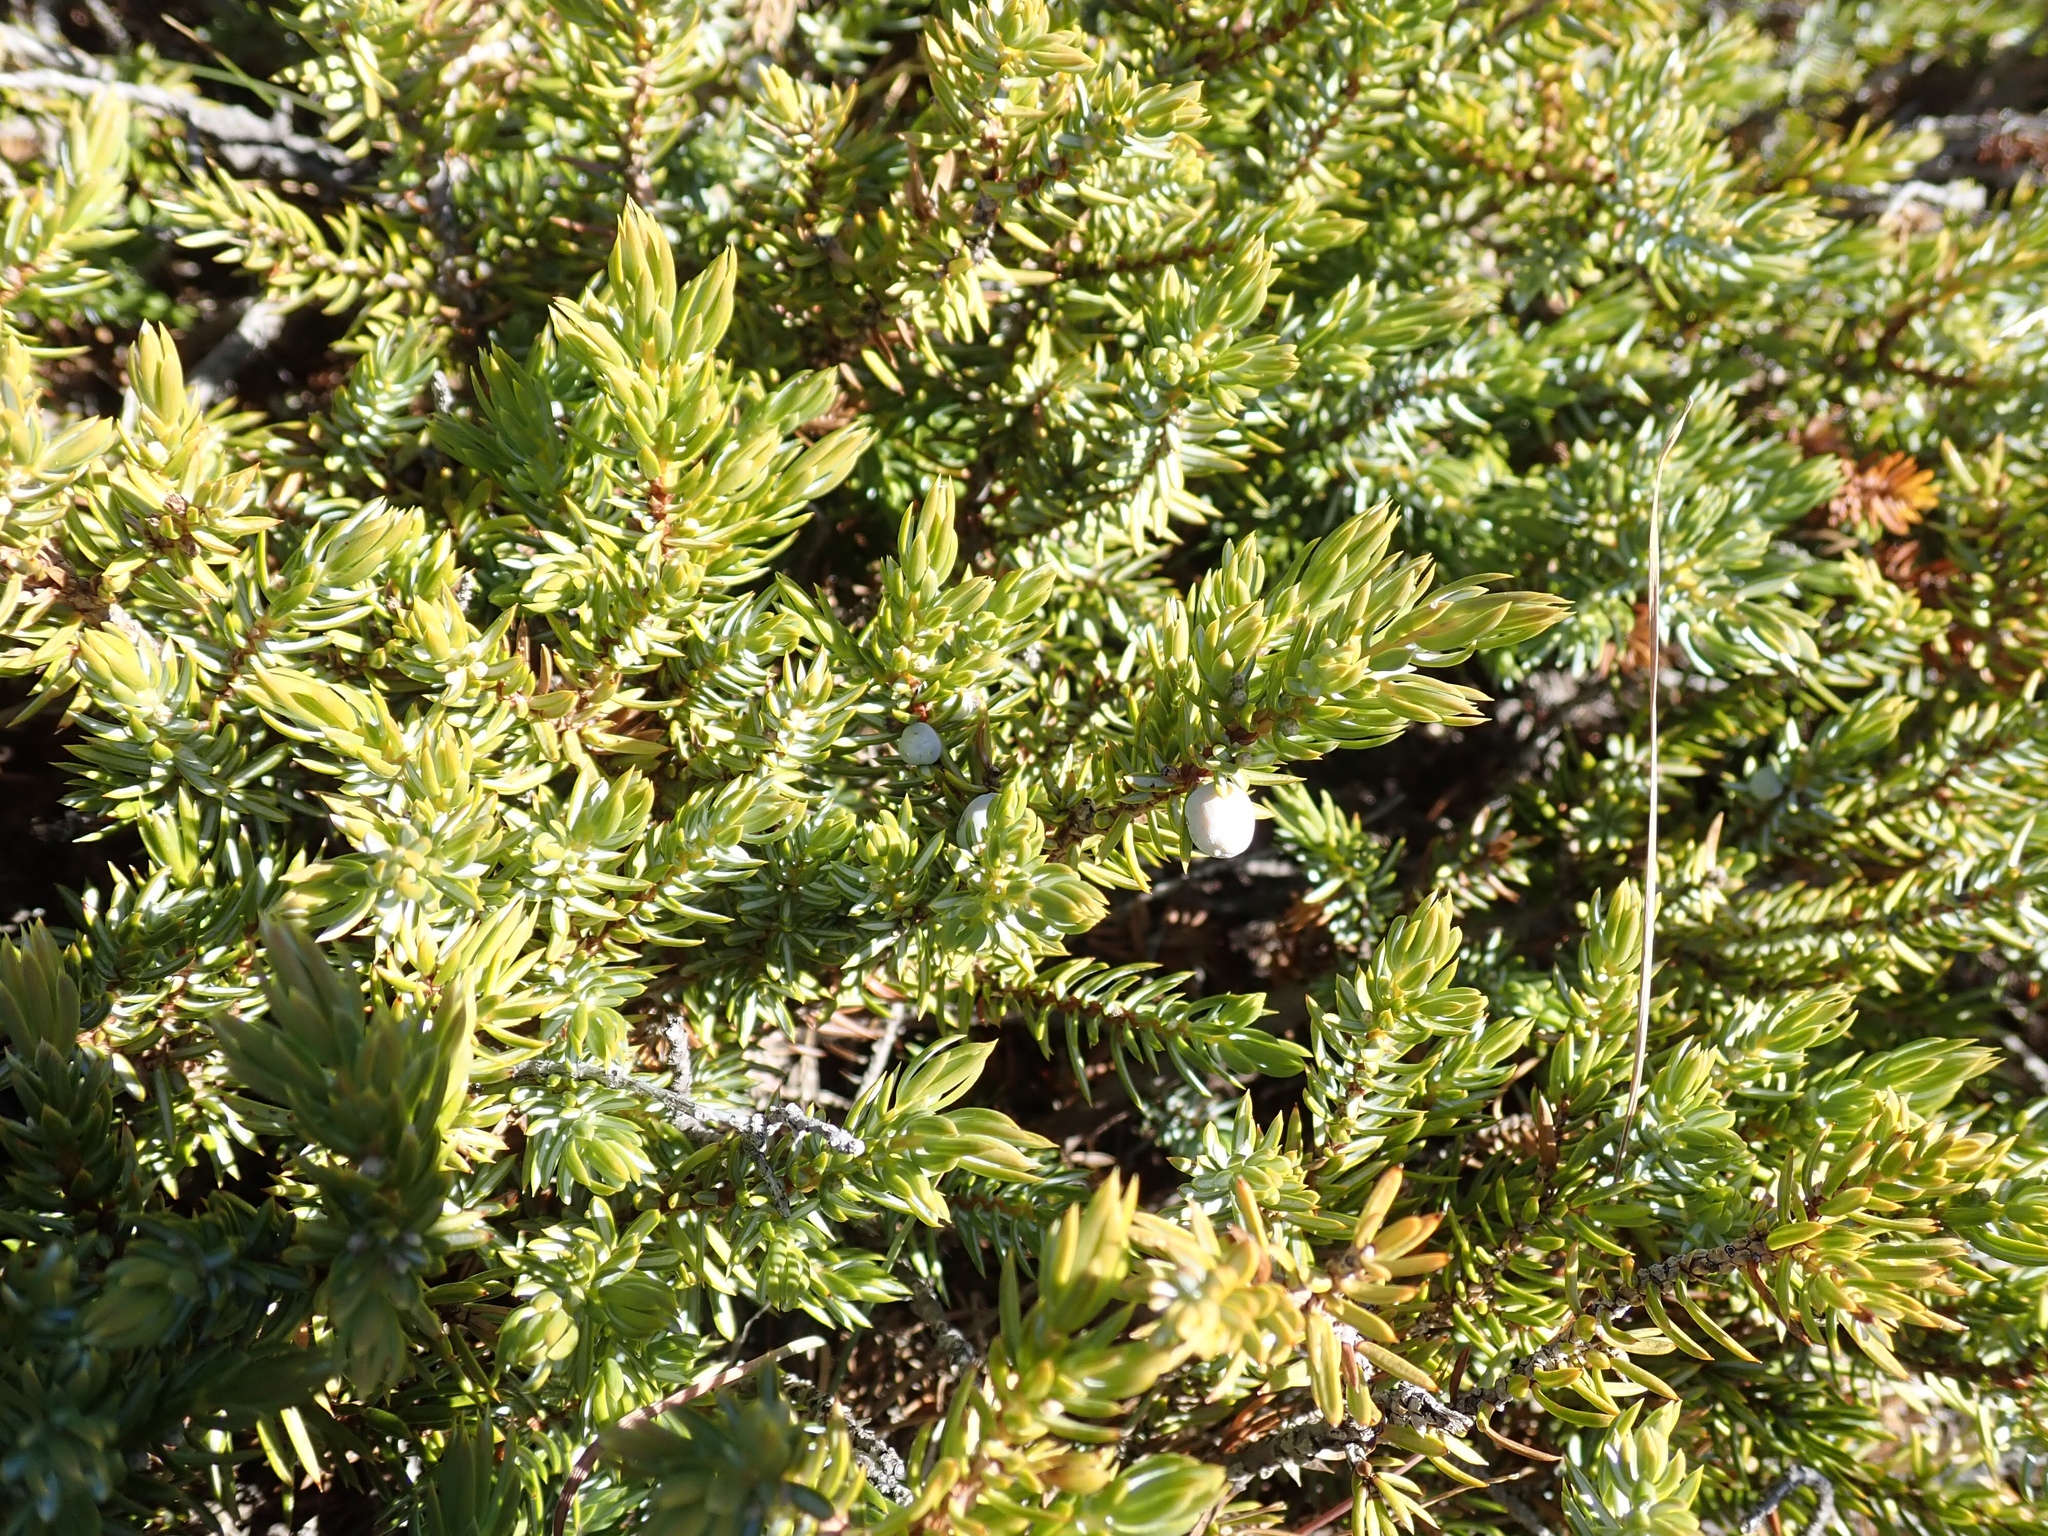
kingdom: Plantae
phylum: Tracheophyta
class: Pinopsida
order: Pinales
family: Cupressaceae
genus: Juniperus
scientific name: Juniperus communis
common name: Common juniper
